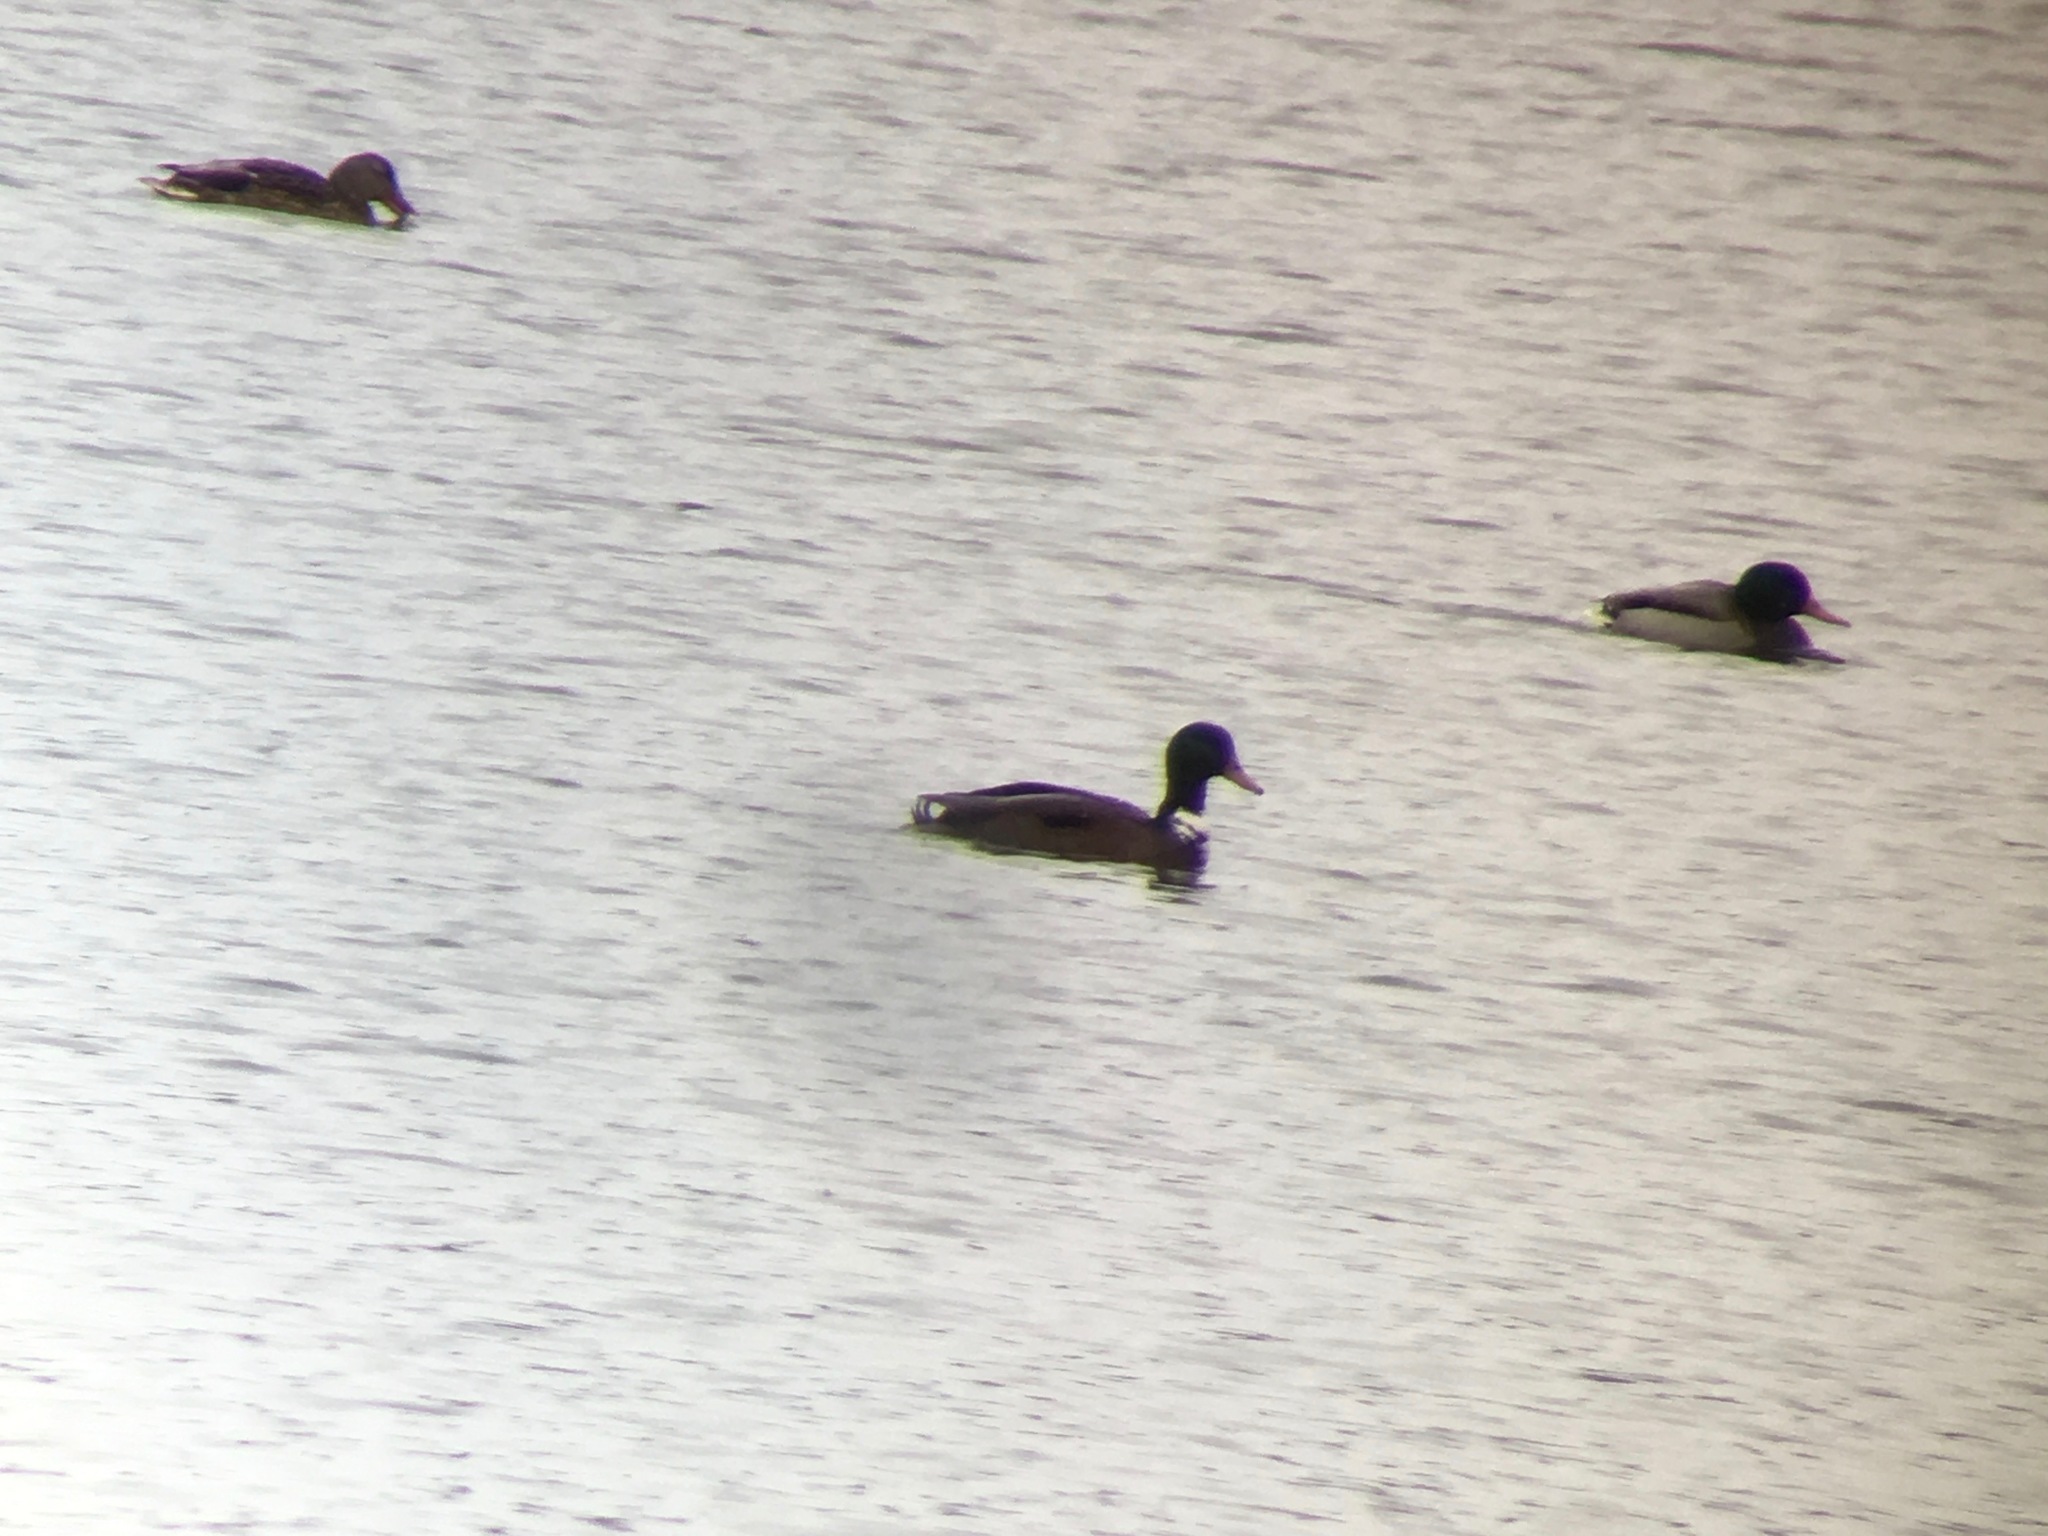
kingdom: Animalia
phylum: Chordata
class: Aves
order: Anseriformes
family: Anatidae
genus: Anas
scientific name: Anas platyrhynchos
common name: Mallard
